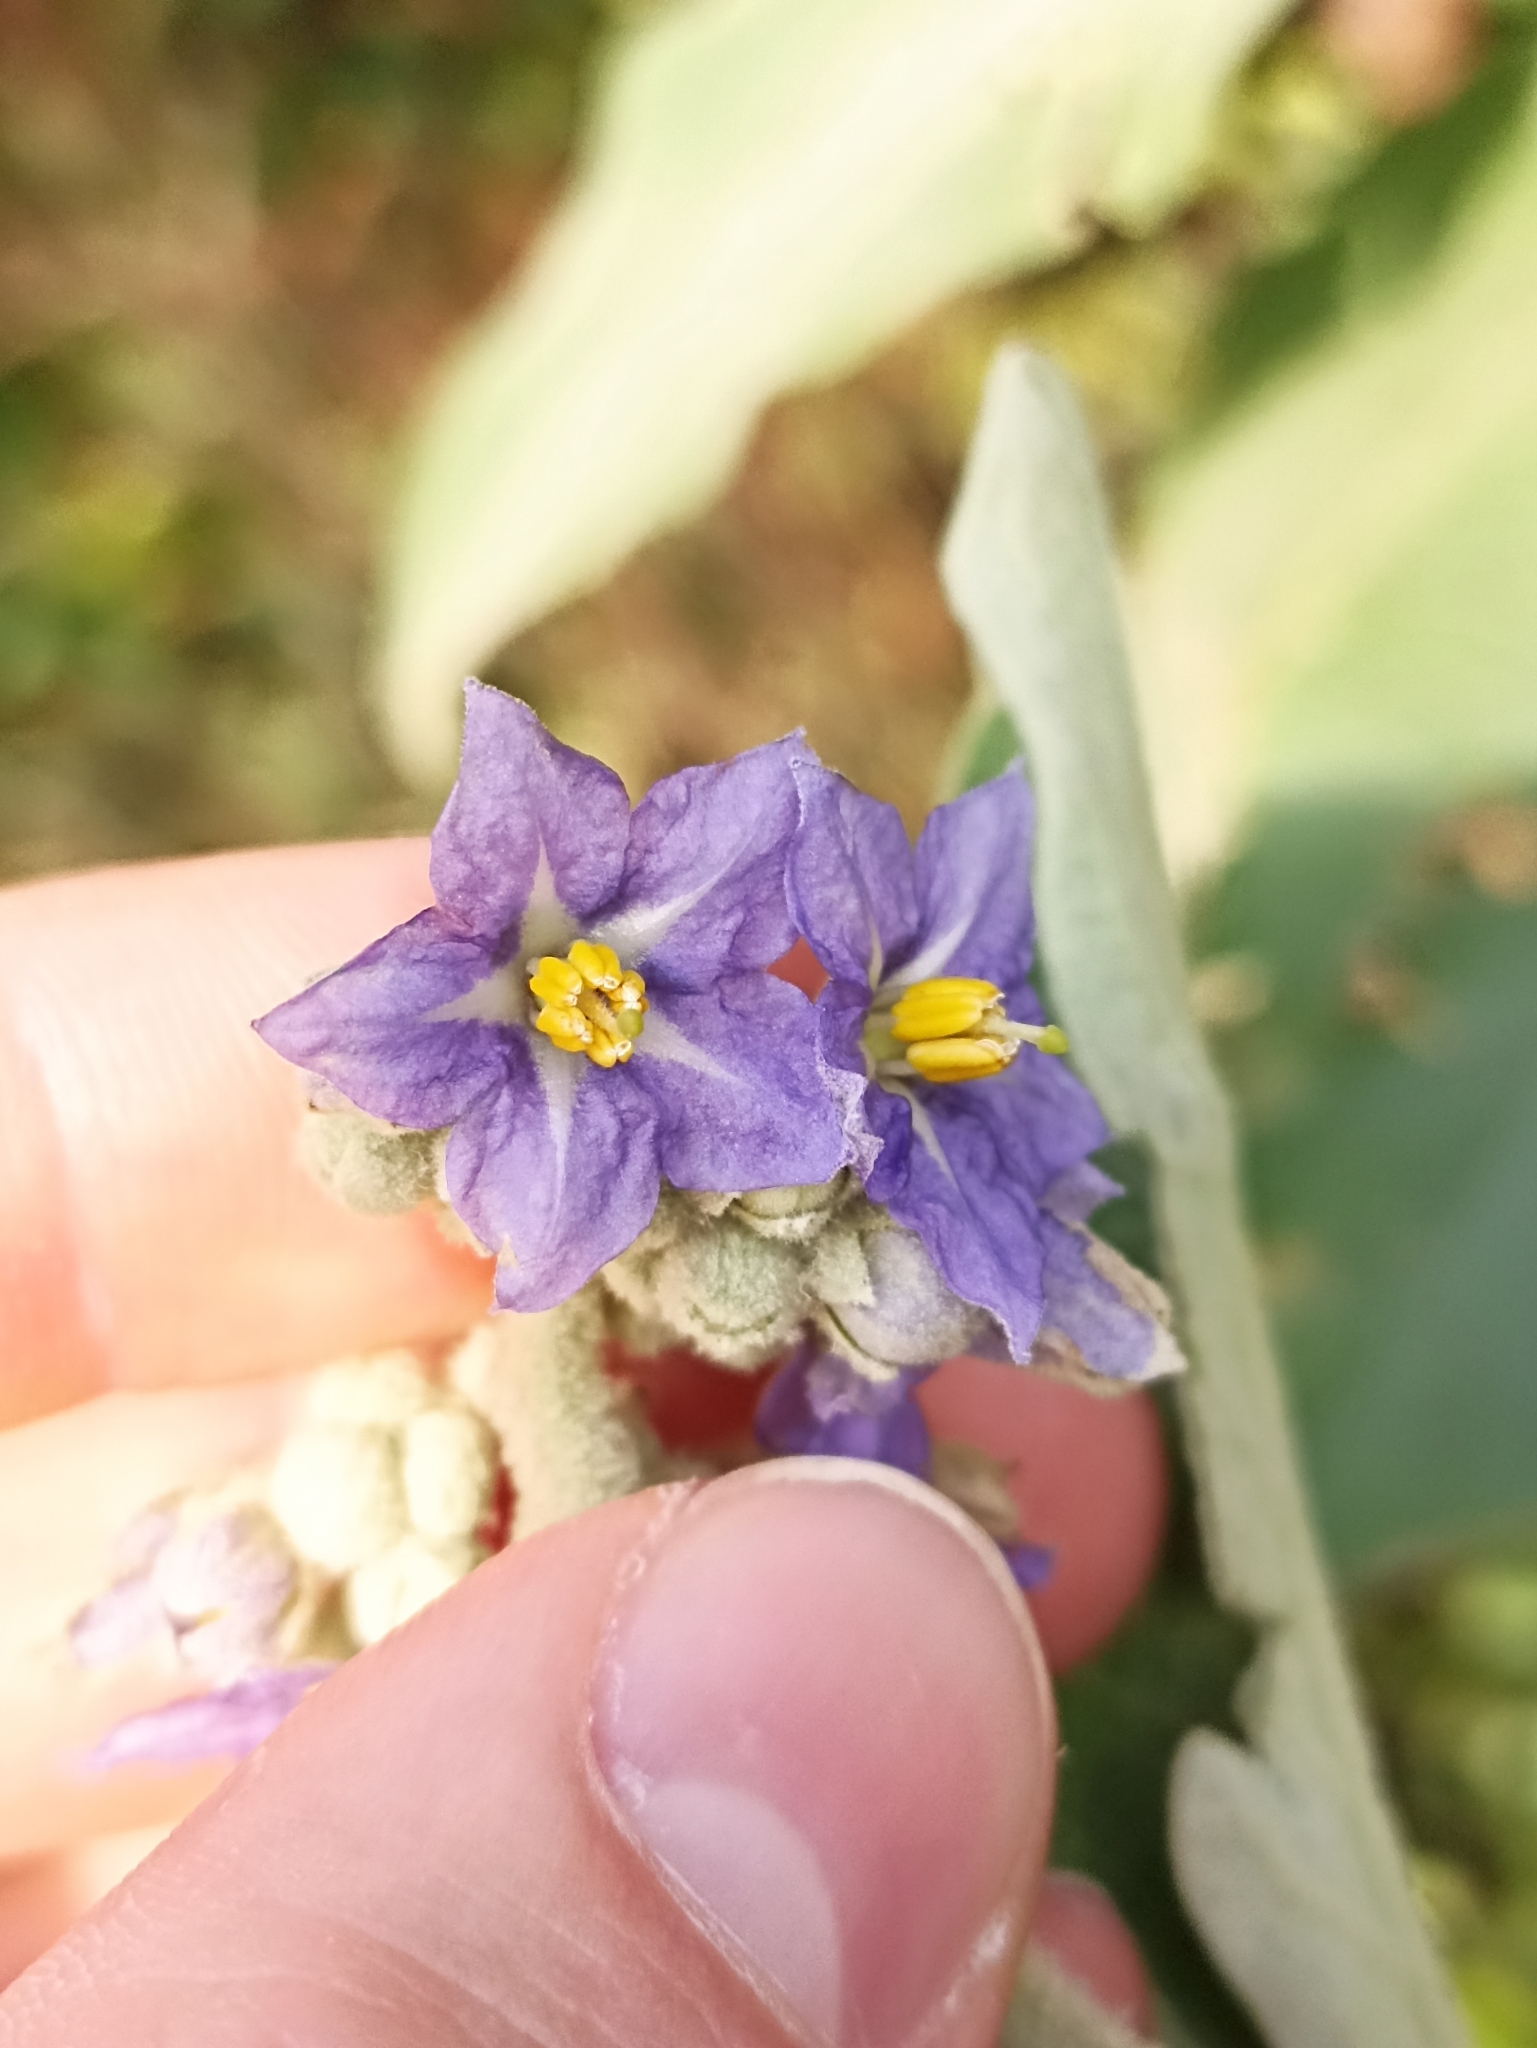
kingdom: Plantae
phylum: Tracheophyta
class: Magnoliopsida
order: Solanales
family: Solanaceae
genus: Solanum
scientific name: Solanum mauritianum
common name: Earleaf nightshade
